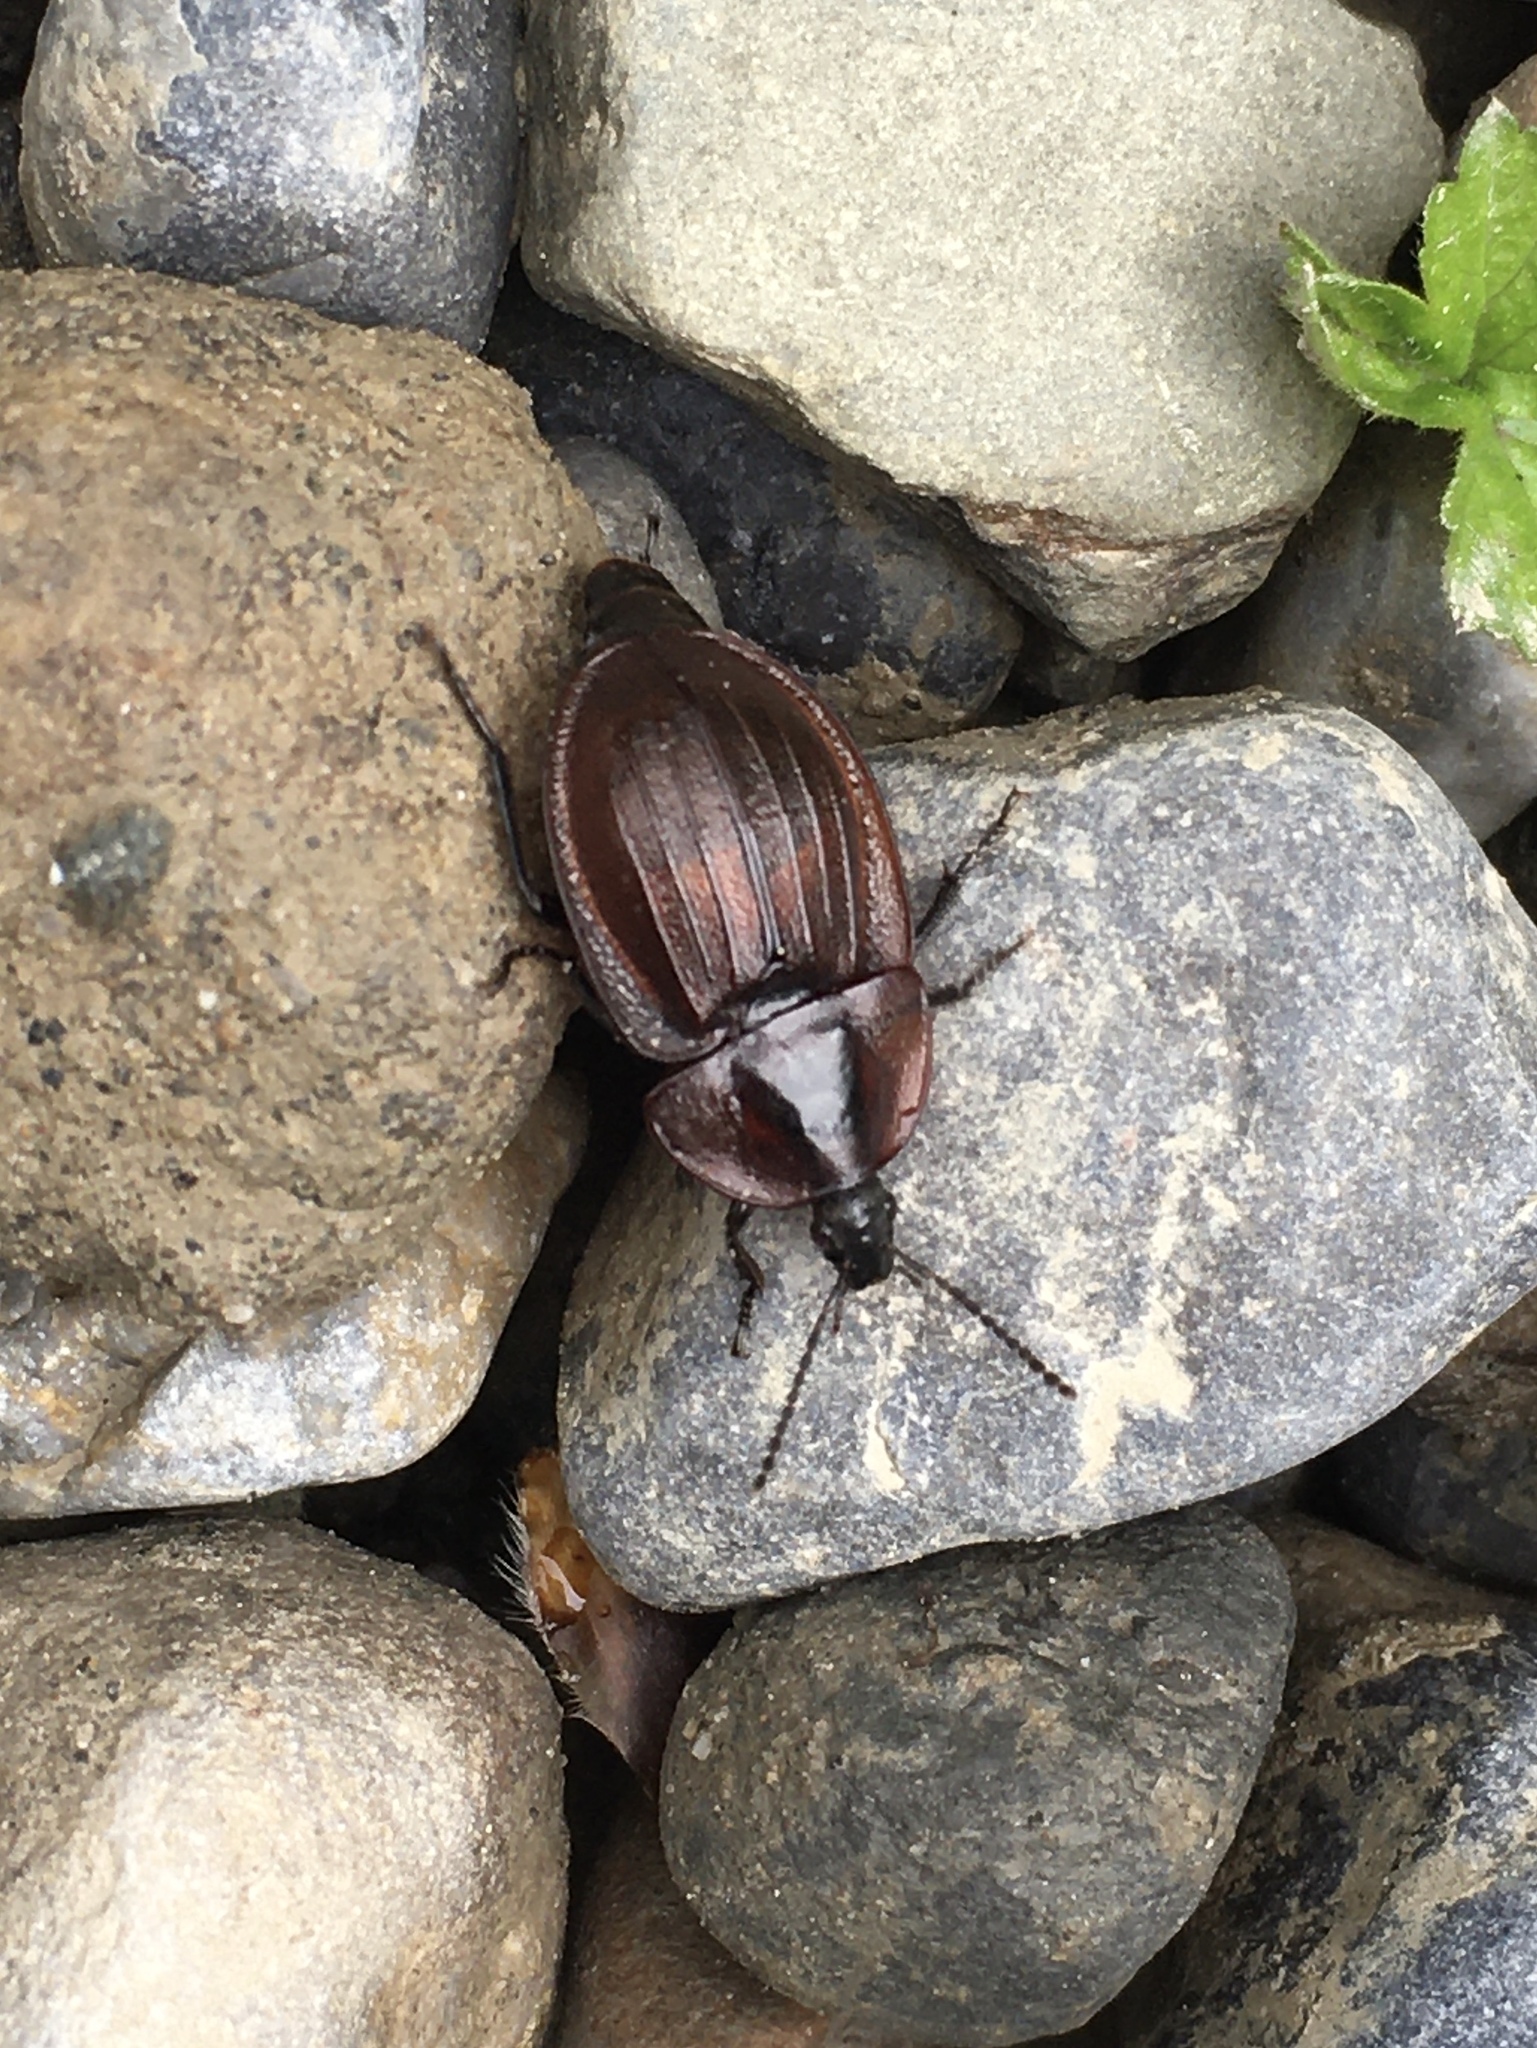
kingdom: Animalia
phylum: Arthropoda
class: Insecta
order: Coleoptera
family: Staphylinidae
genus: Silpha
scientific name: Silpha atrata
